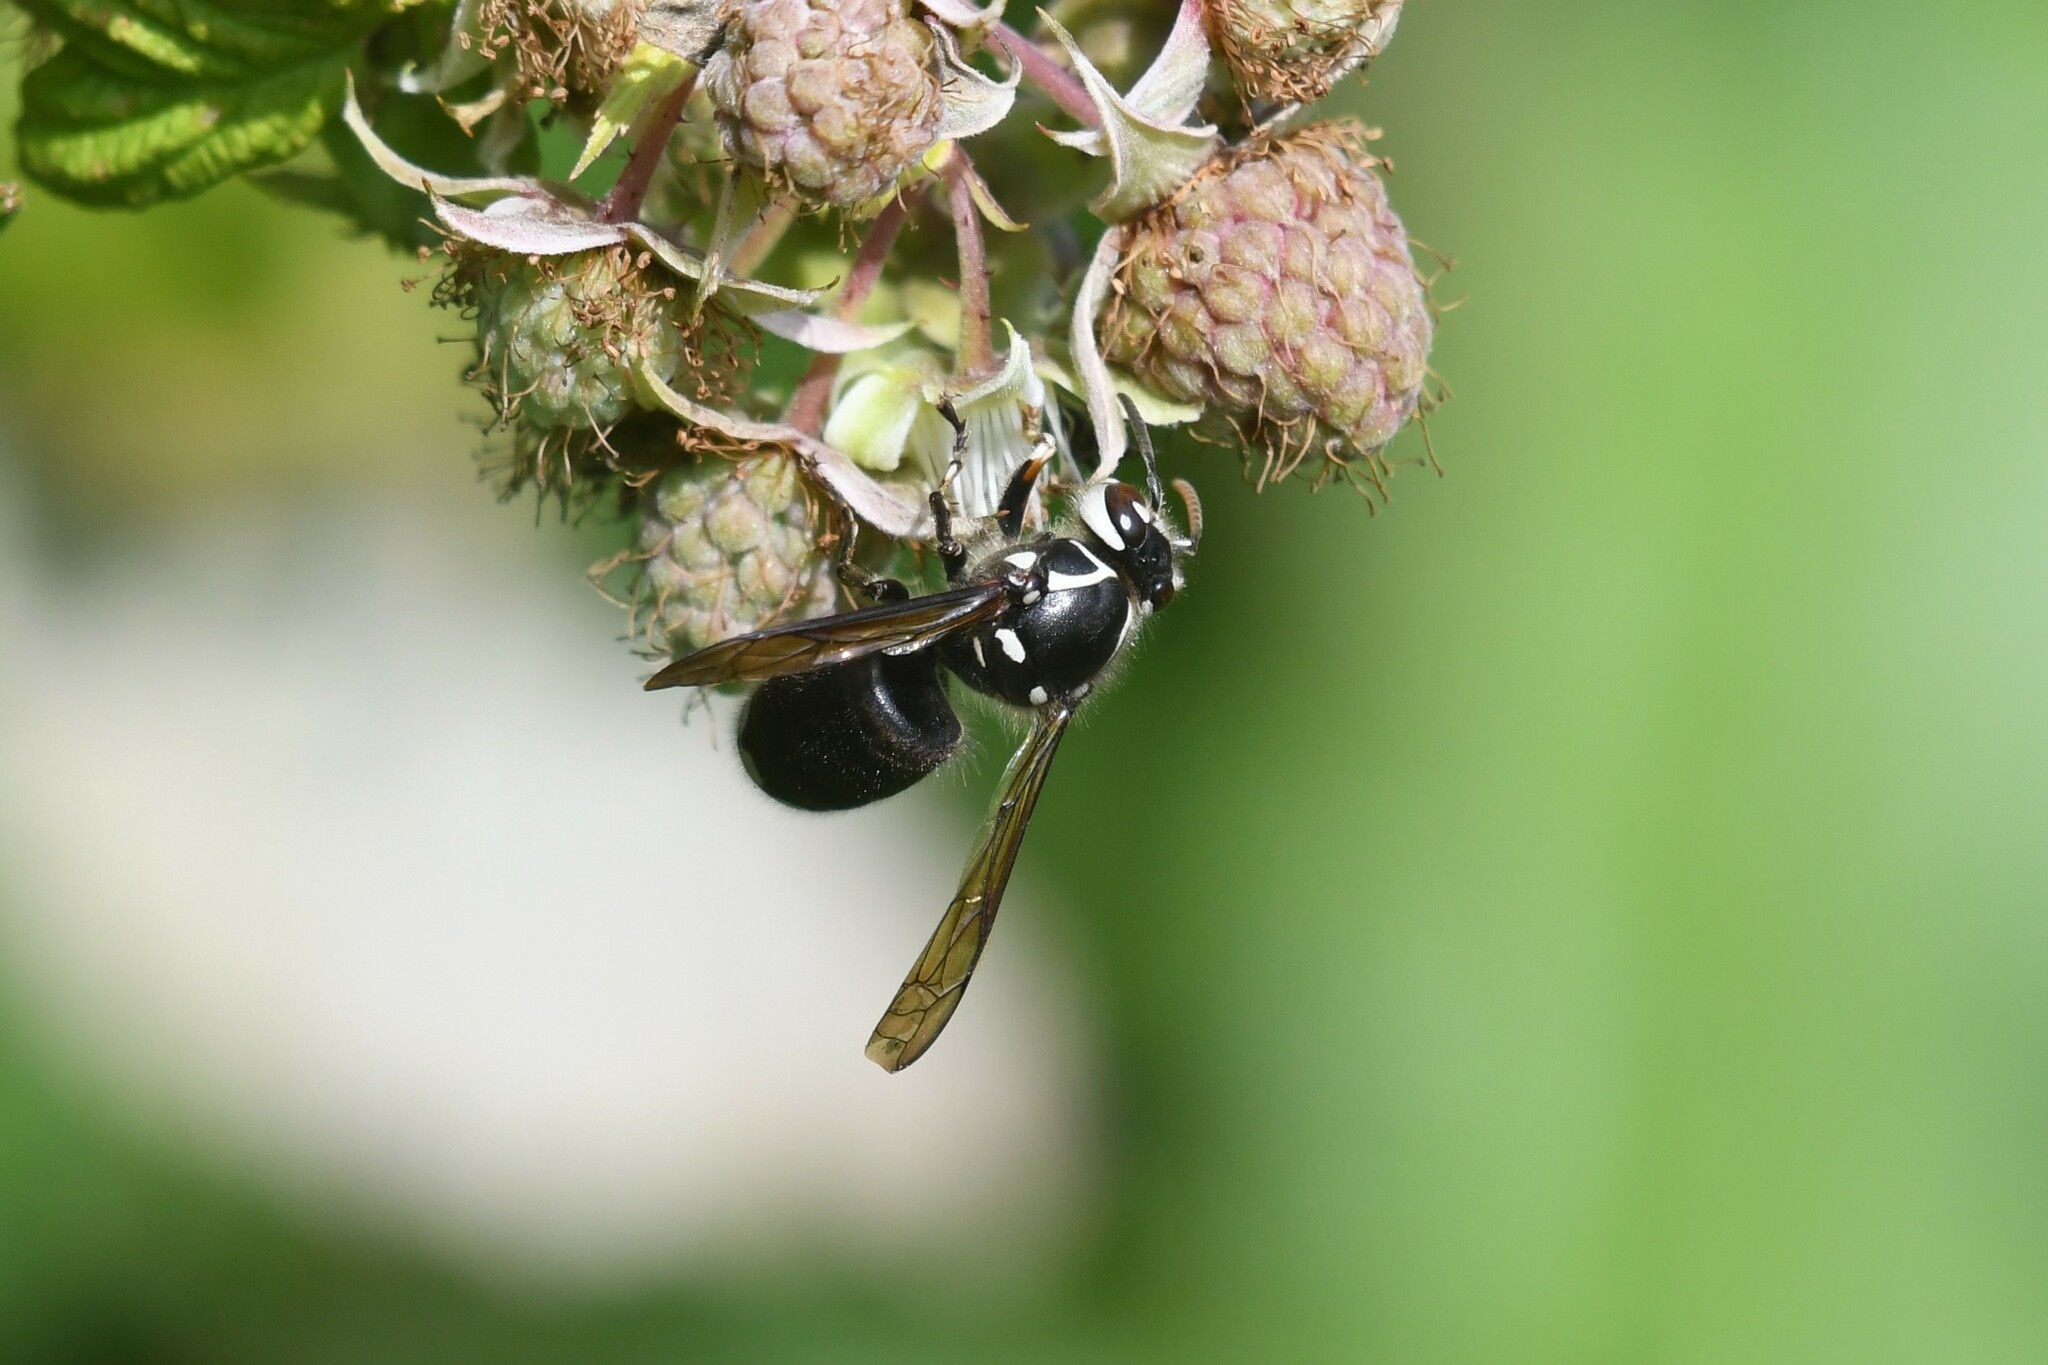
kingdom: Animalia
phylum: Arthropoda
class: Insecta
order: Hymenoptera
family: Vespidae
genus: Dolichovespula
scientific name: Dolichovespula maculata
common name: Bald-faced hornet
